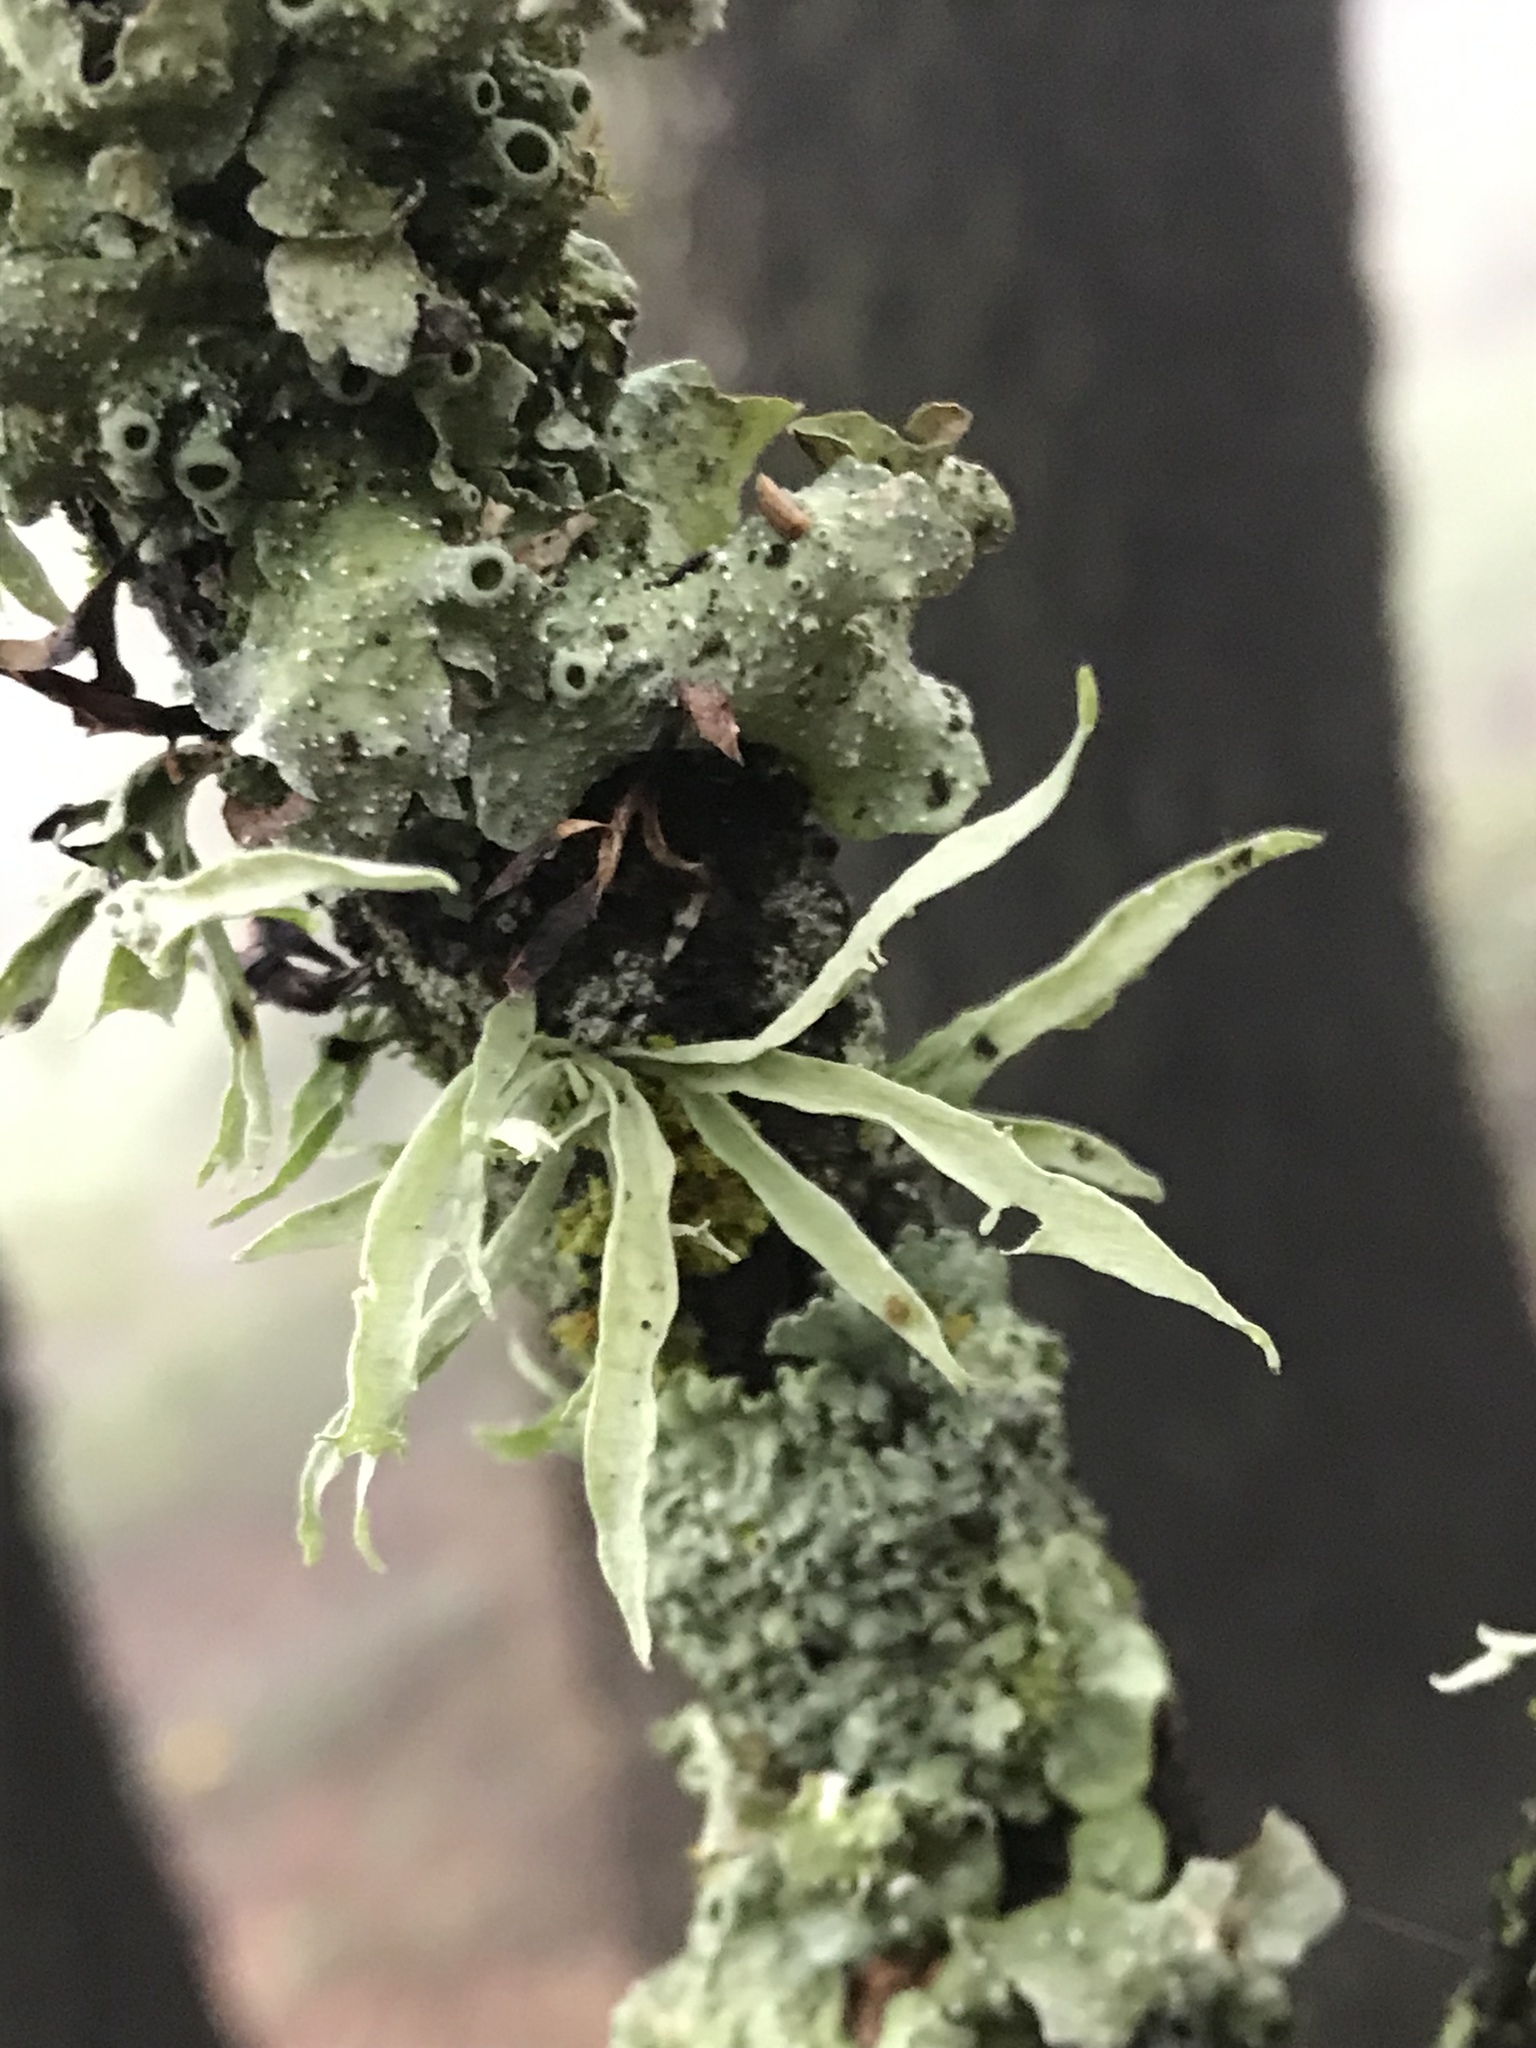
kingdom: Fungi
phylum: Ascomycota
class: Lecanoromycetes
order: Lecanorales
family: Ramalinaceae
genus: Ramalina
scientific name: Ramalina celastri
